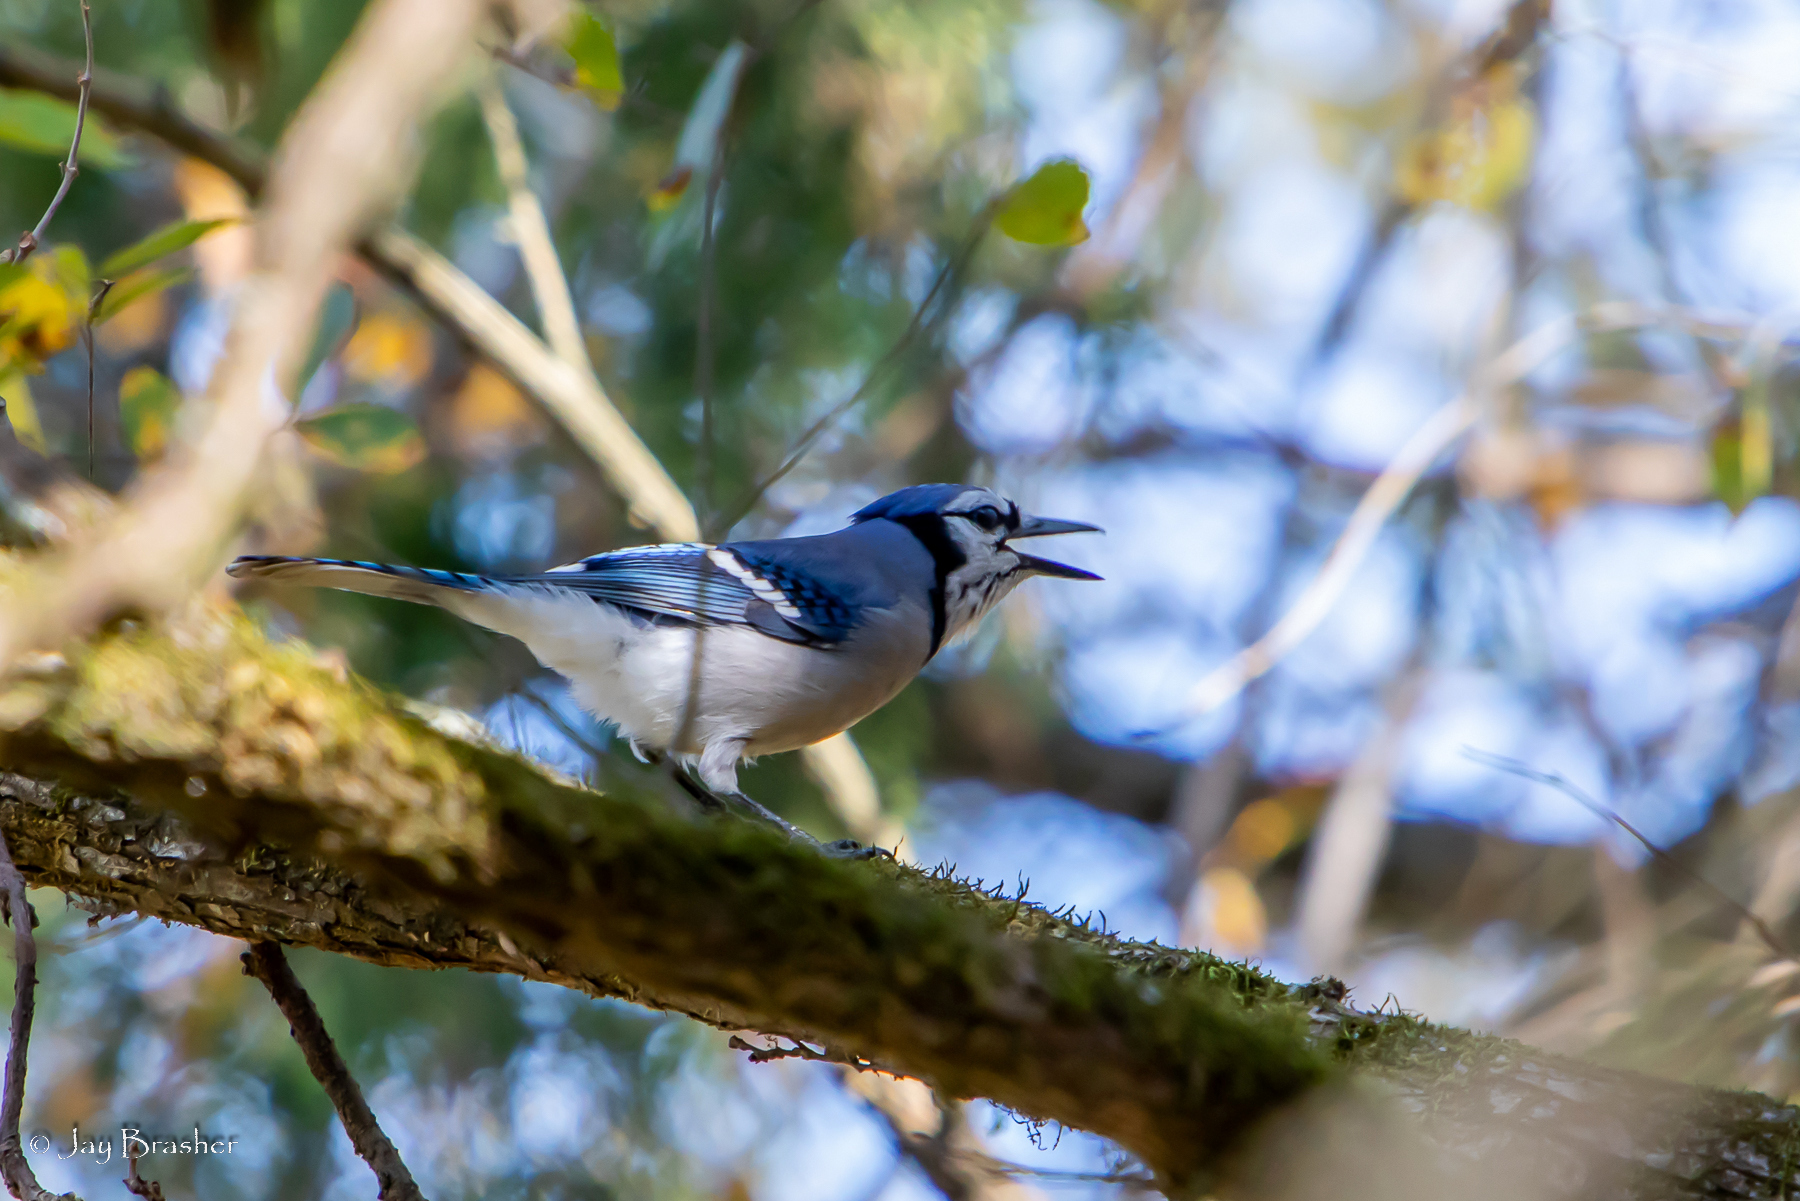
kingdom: Animalia
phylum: Chordata
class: Aves
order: Passeriformes
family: Corvidae
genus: Cyanocitta
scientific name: Cyanocitta cristata
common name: Blue jay
